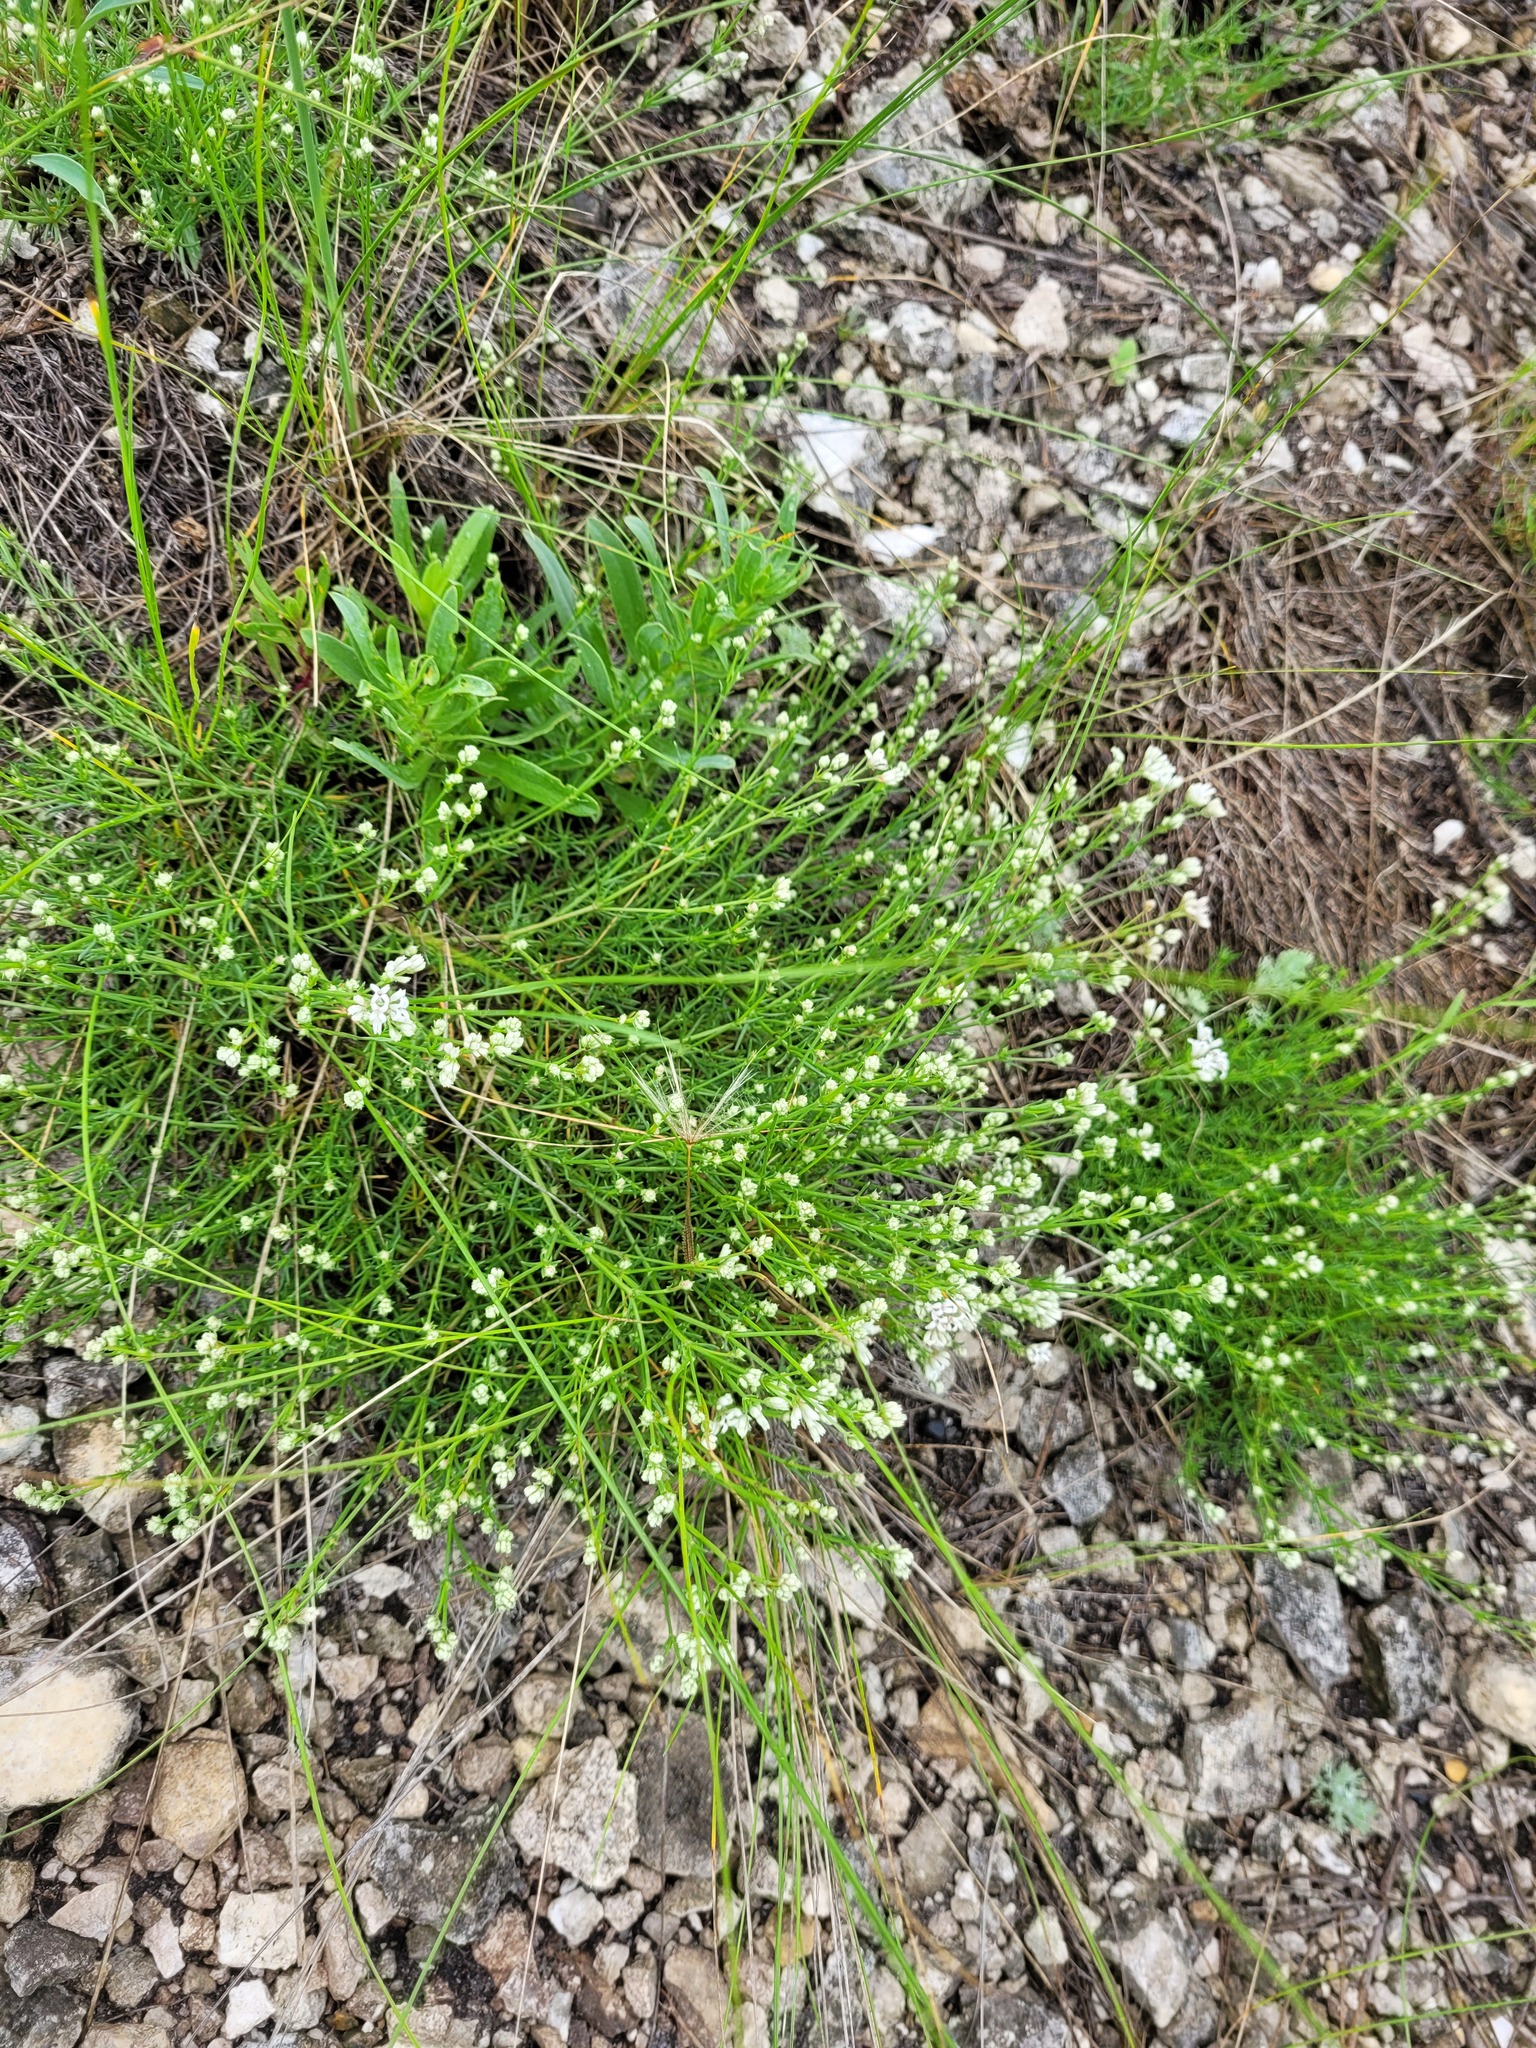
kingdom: Plantae
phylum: Tracheophyta
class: Magnoliopsida
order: Gentianales
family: Rubiaceae
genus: Cynanchica
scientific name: Cynanchica tephrocarpa
